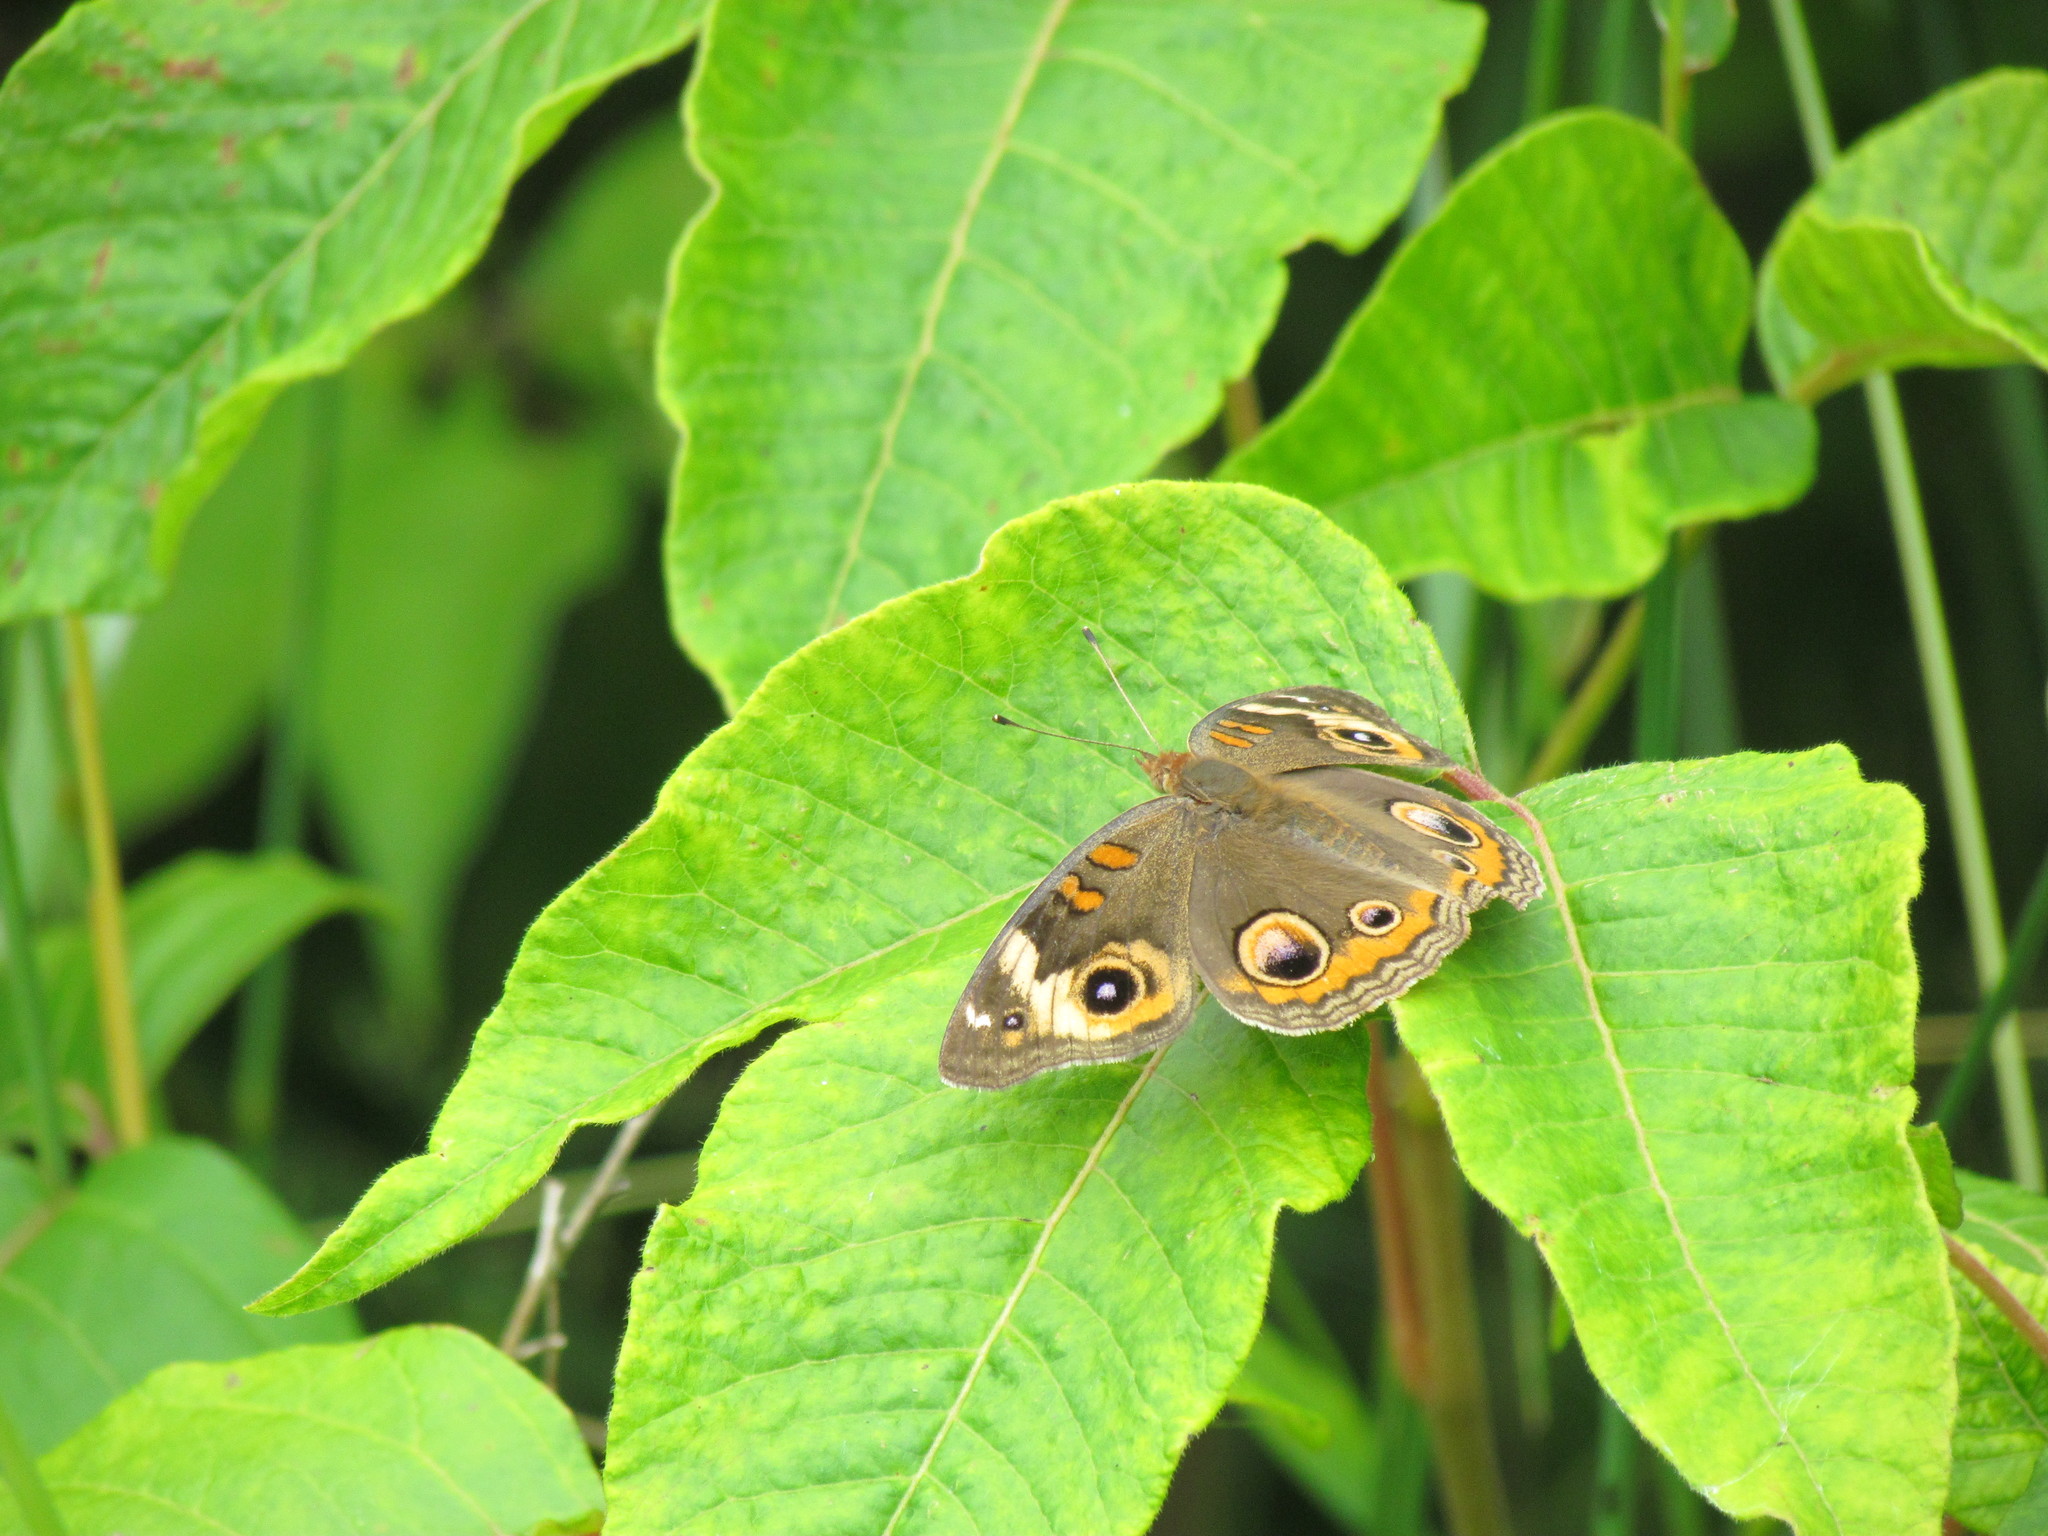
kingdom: Animalia
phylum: Arthropoda
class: Insecta
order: Lepidoptera
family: Nymphalidae
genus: Junonia
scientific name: Junonia coenia
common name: Common buckeye
